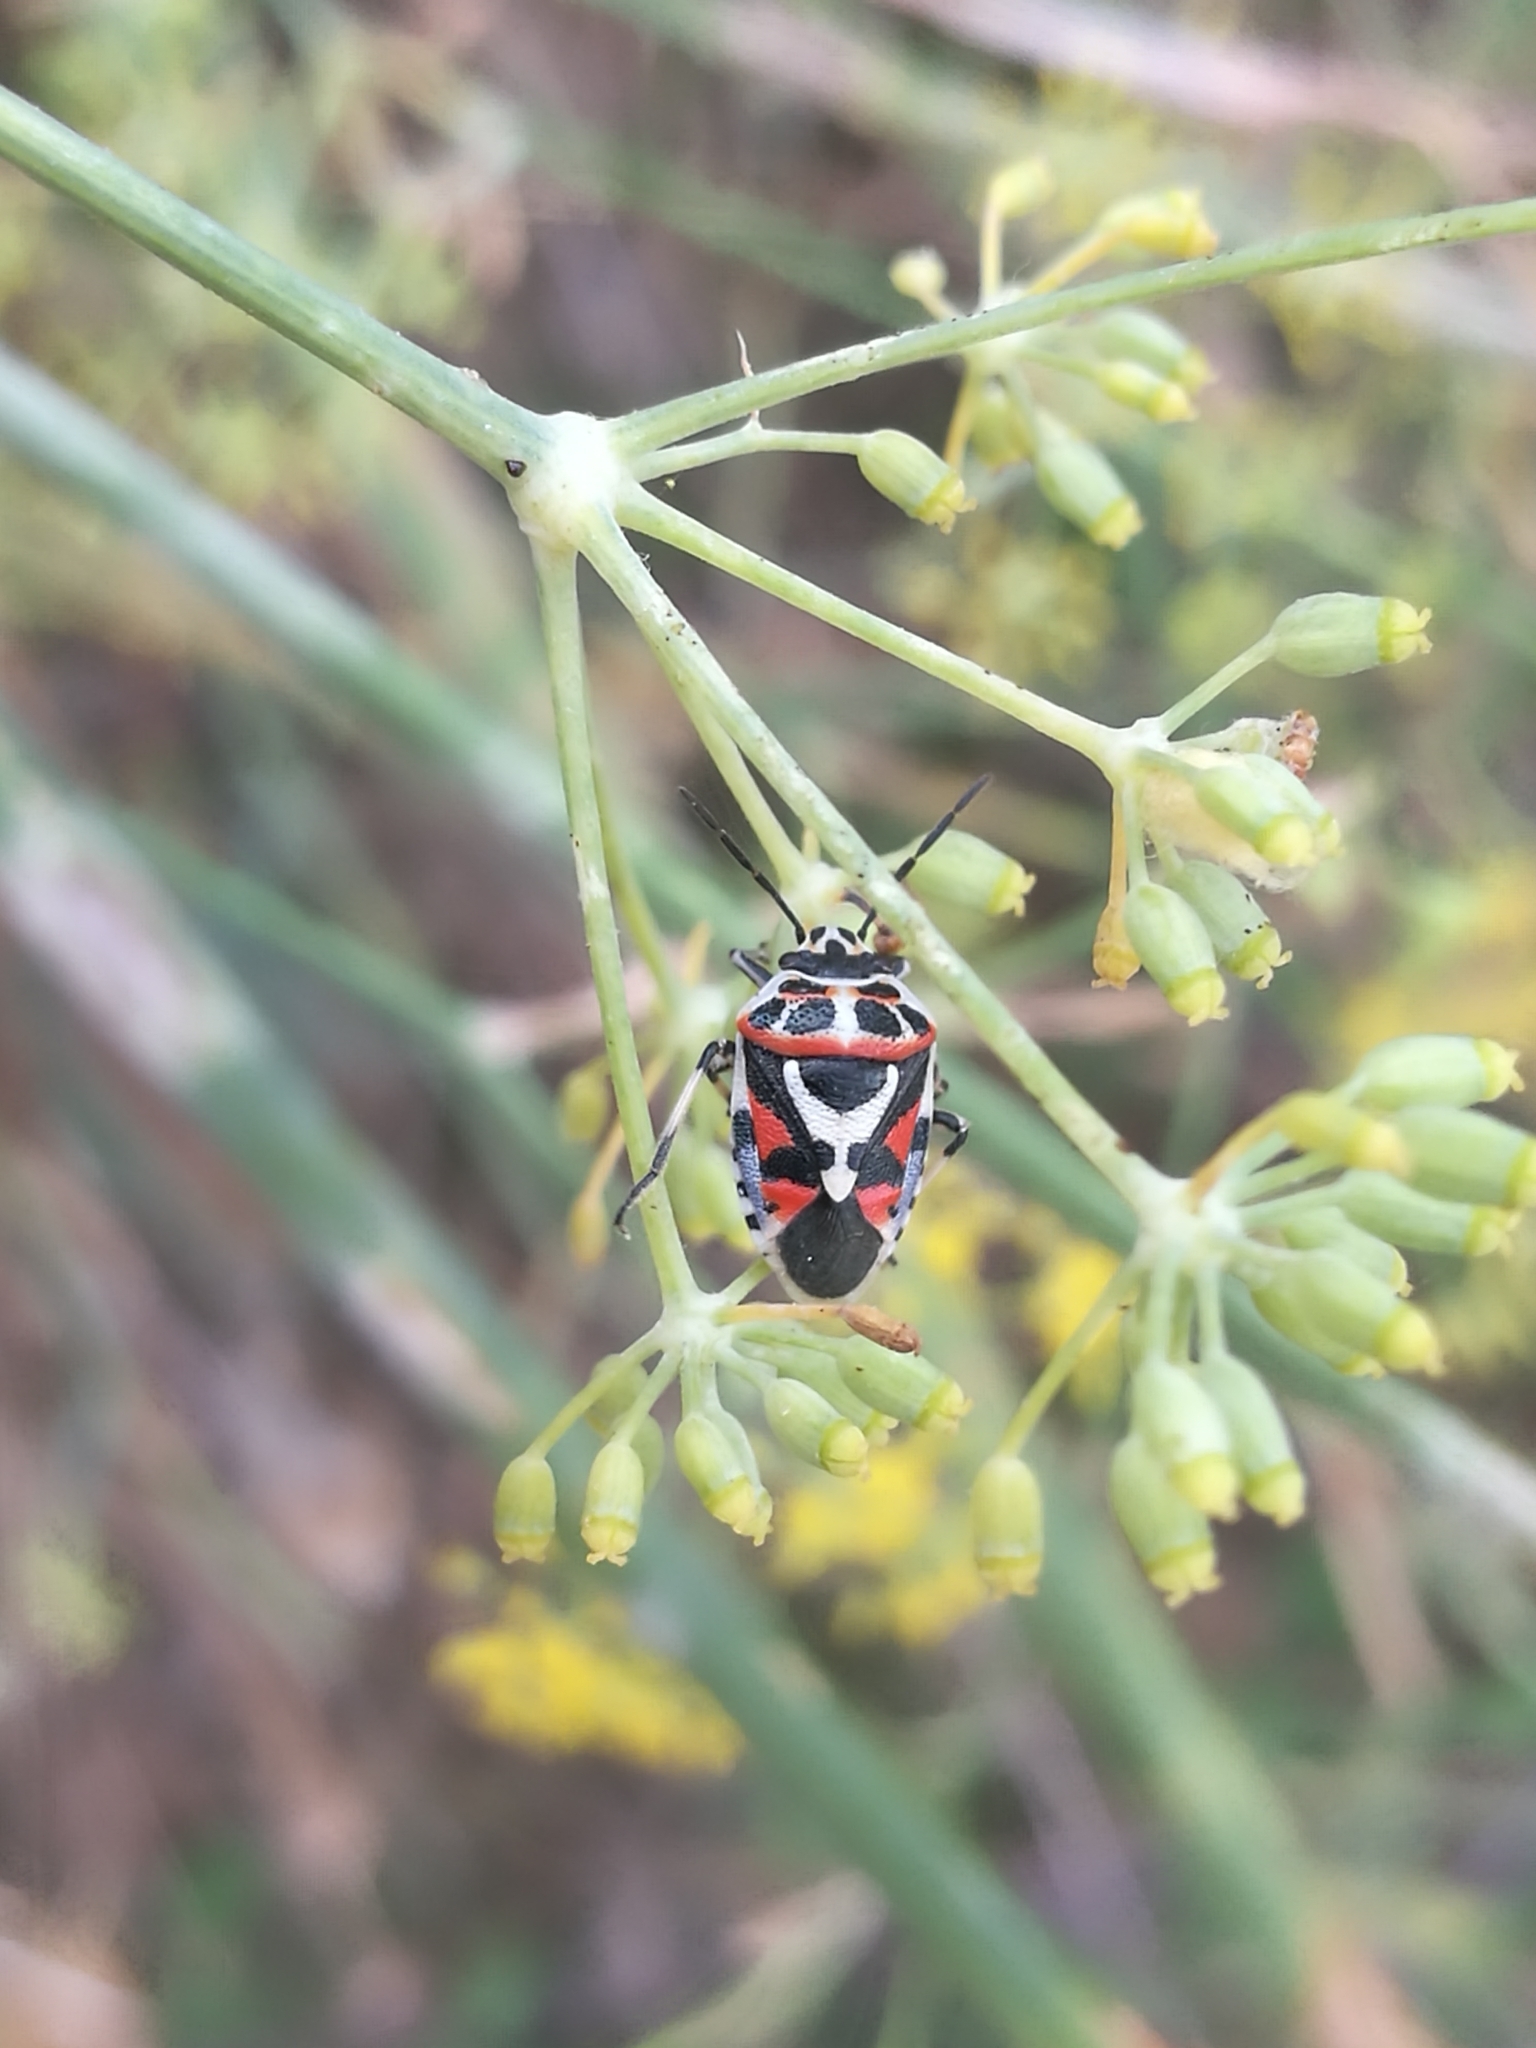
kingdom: Animalia
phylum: Arthropoda
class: Insecta
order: Hemiptera
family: Pentatomidae
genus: Eurydema
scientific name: Eurydema ornata
